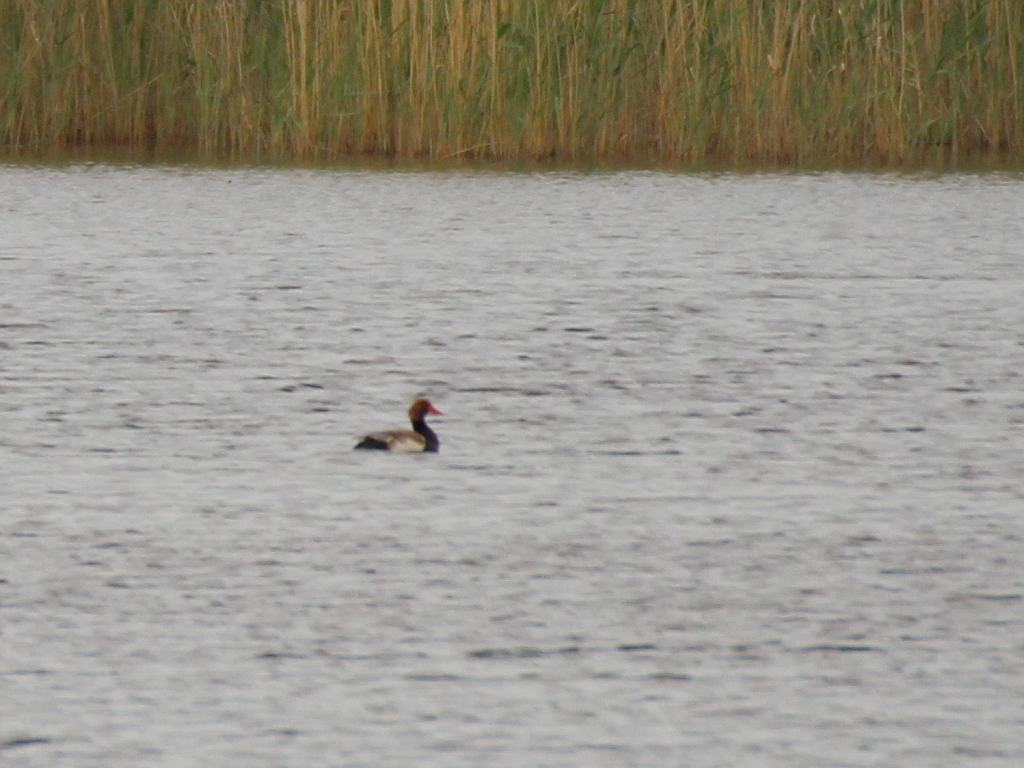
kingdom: Animalia
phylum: Chordata
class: Aves
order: Anseriformes
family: Anatidae
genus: Netta
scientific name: Netta rufina
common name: Red-crested pochard
